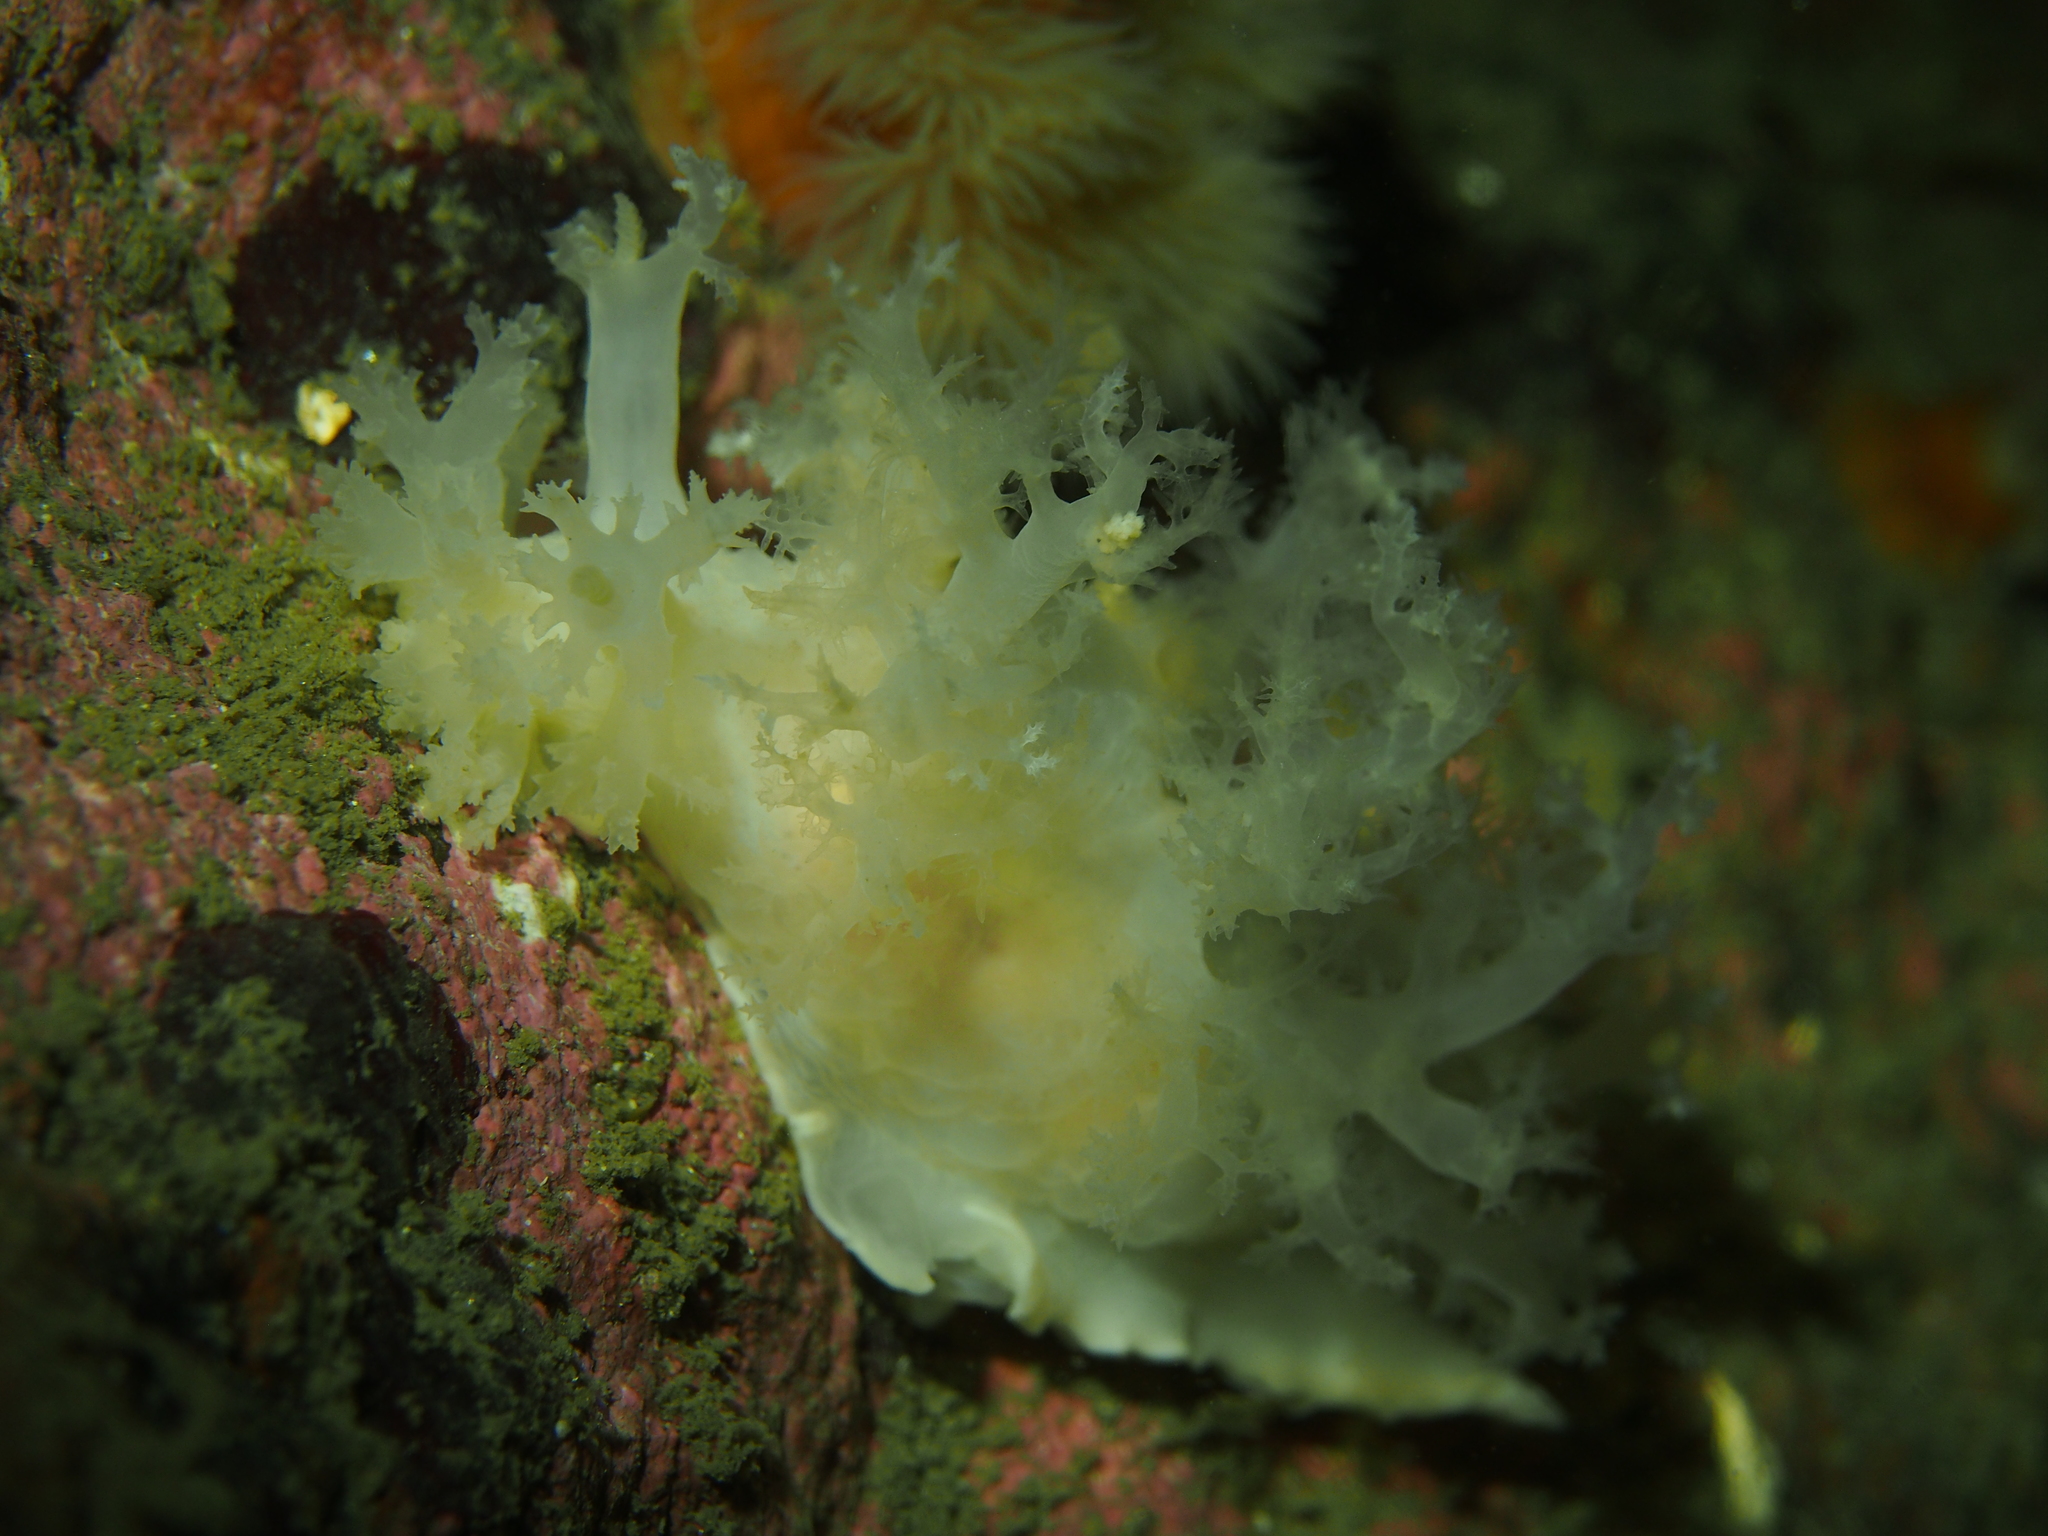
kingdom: Animalia
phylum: Mollusca
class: Gastropoda
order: Nudibranchia
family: Dendronotidae
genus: Dendronotus
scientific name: Dendronotus lacteus
